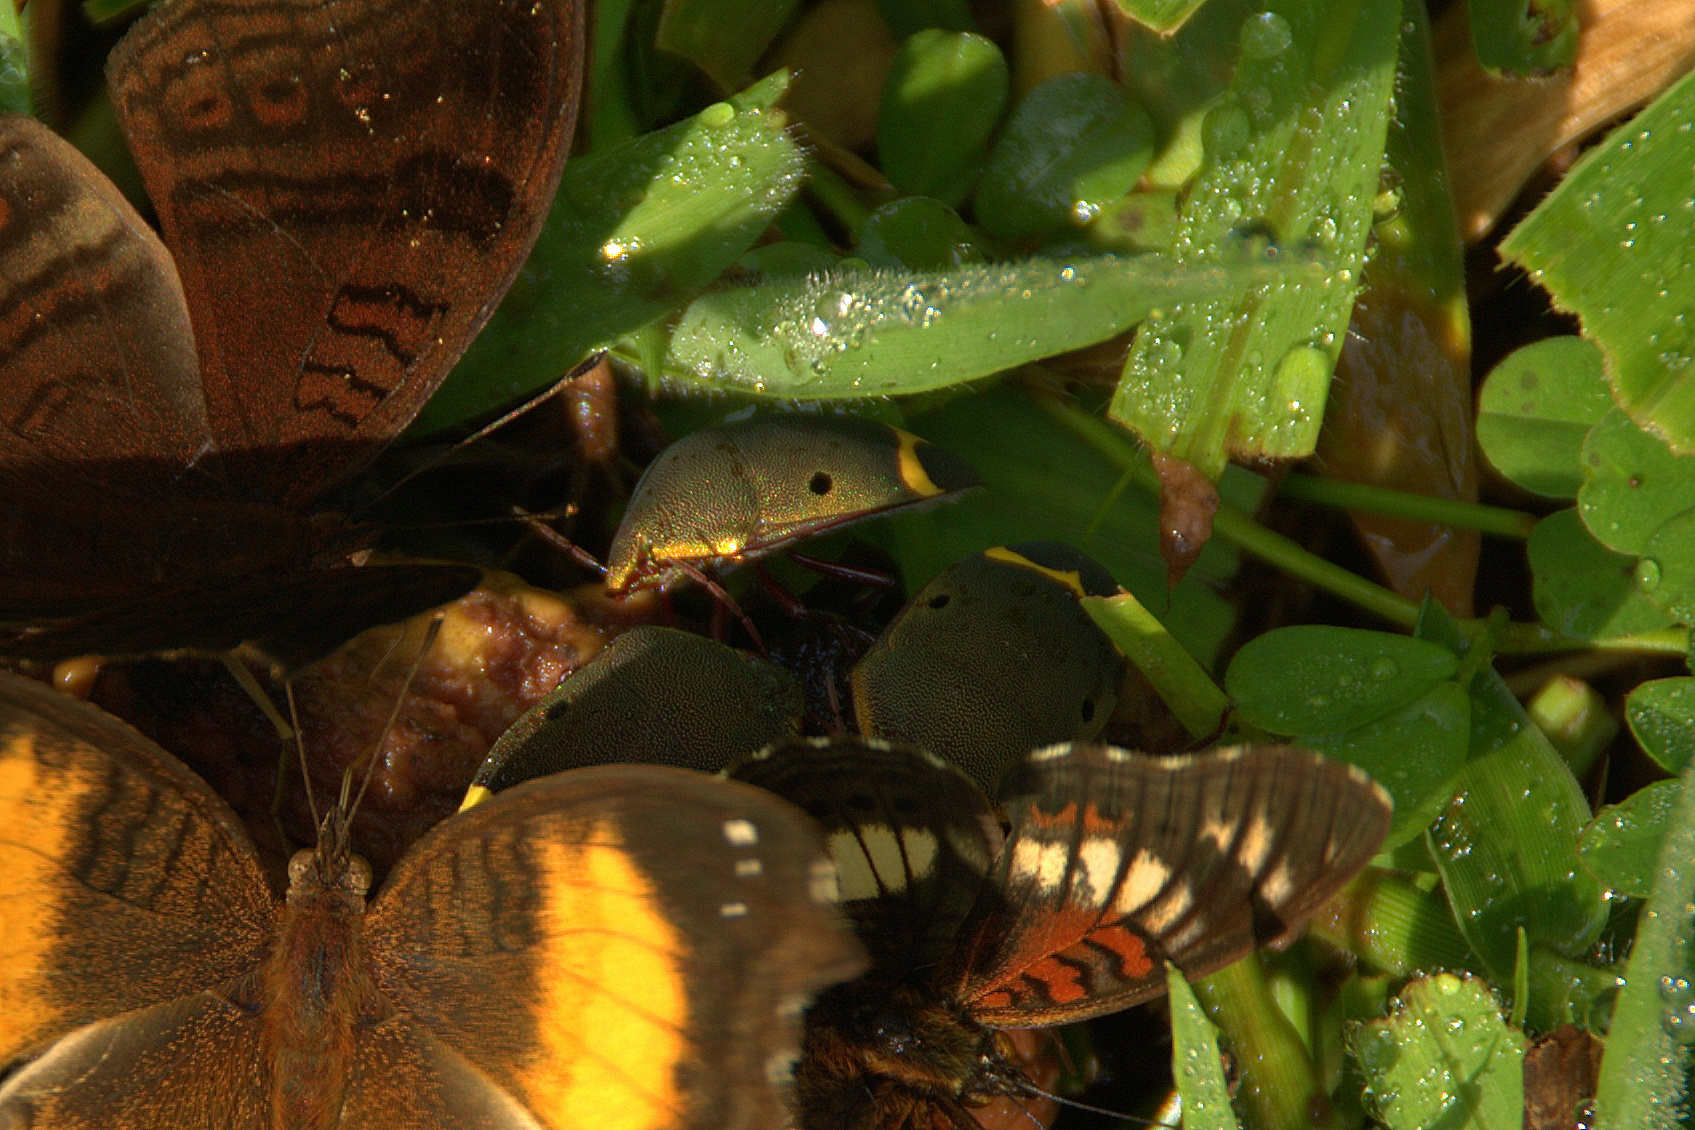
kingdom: Animalia
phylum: Arthropoda
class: Insecta
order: Hemiptera
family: Scutelleridae
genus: Solenosthedium
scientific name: Solenosthedium
